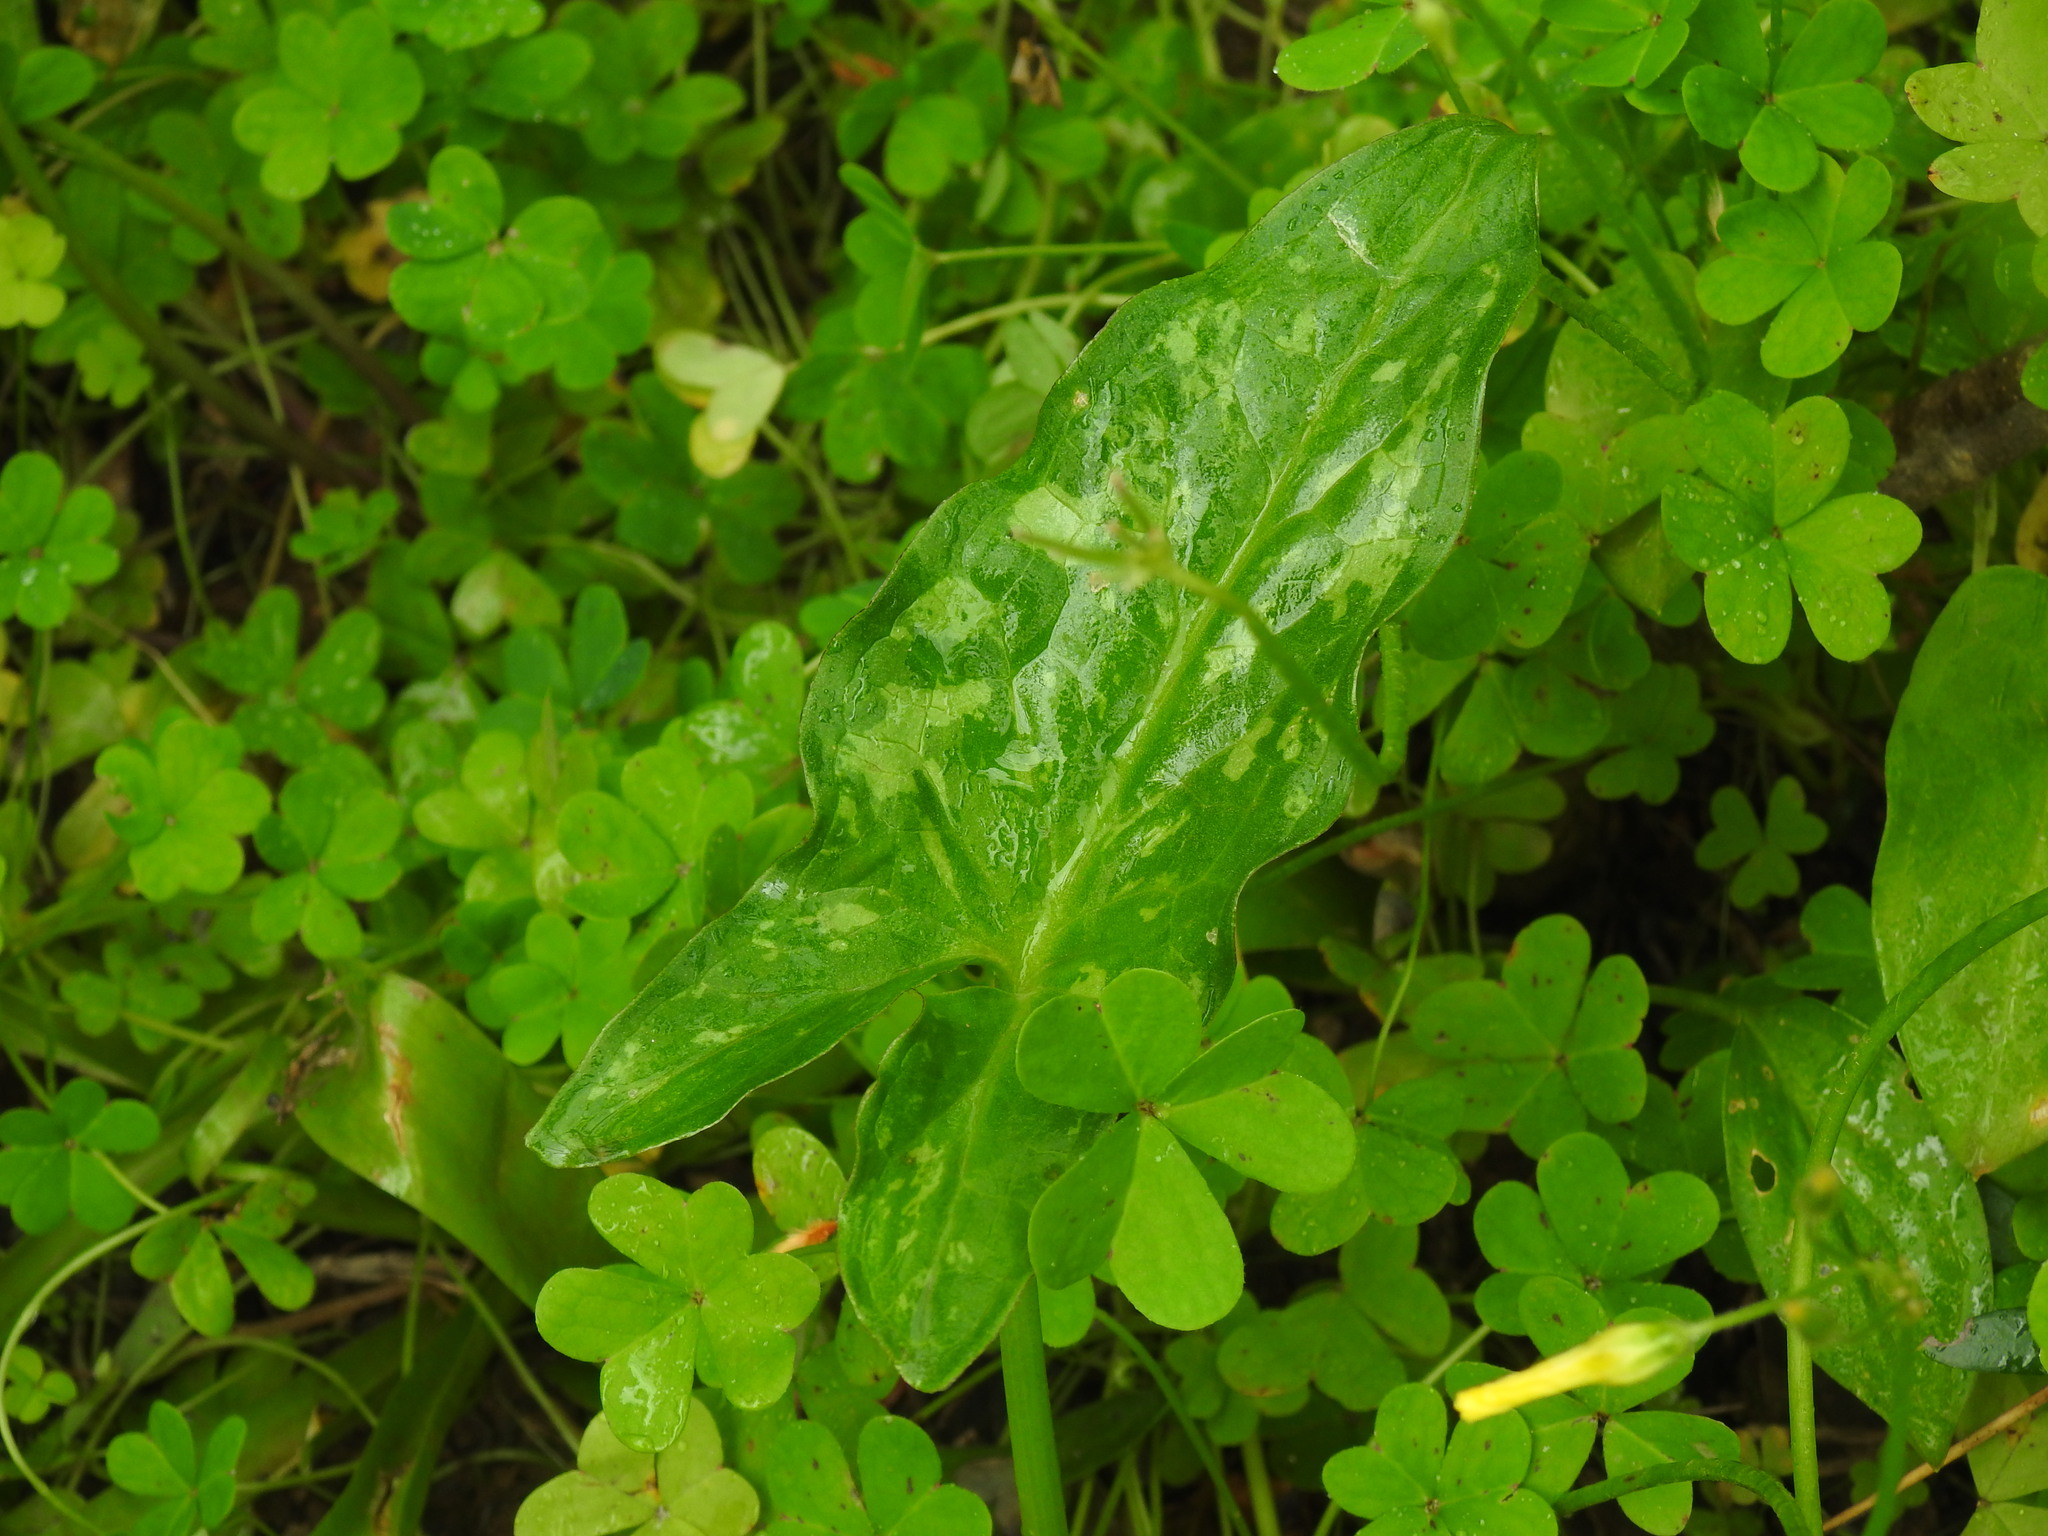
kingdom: Plantae
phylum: Tracheophyta
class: Liliopsida
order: Alismatales
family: Araceae
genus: Arum
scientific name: Arum italicum
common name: Italian lords-and-ladies
